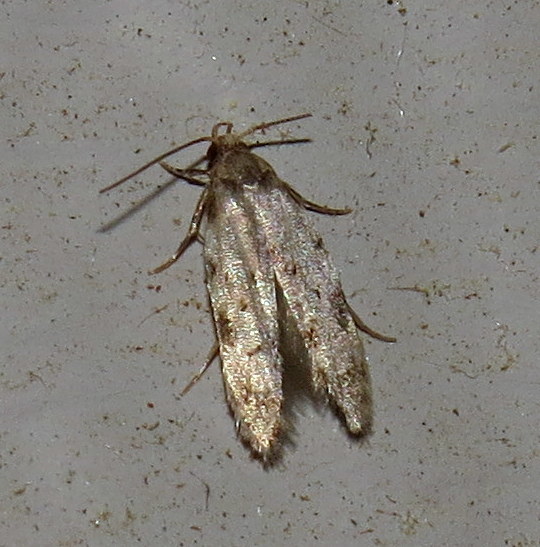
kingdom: Animalia
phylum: Arthropoda
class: Insecta
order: Lepidoptera
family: Autostichidae
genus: Taygete
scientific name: Taygete attributella
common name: Triangle-marked twirler moth
